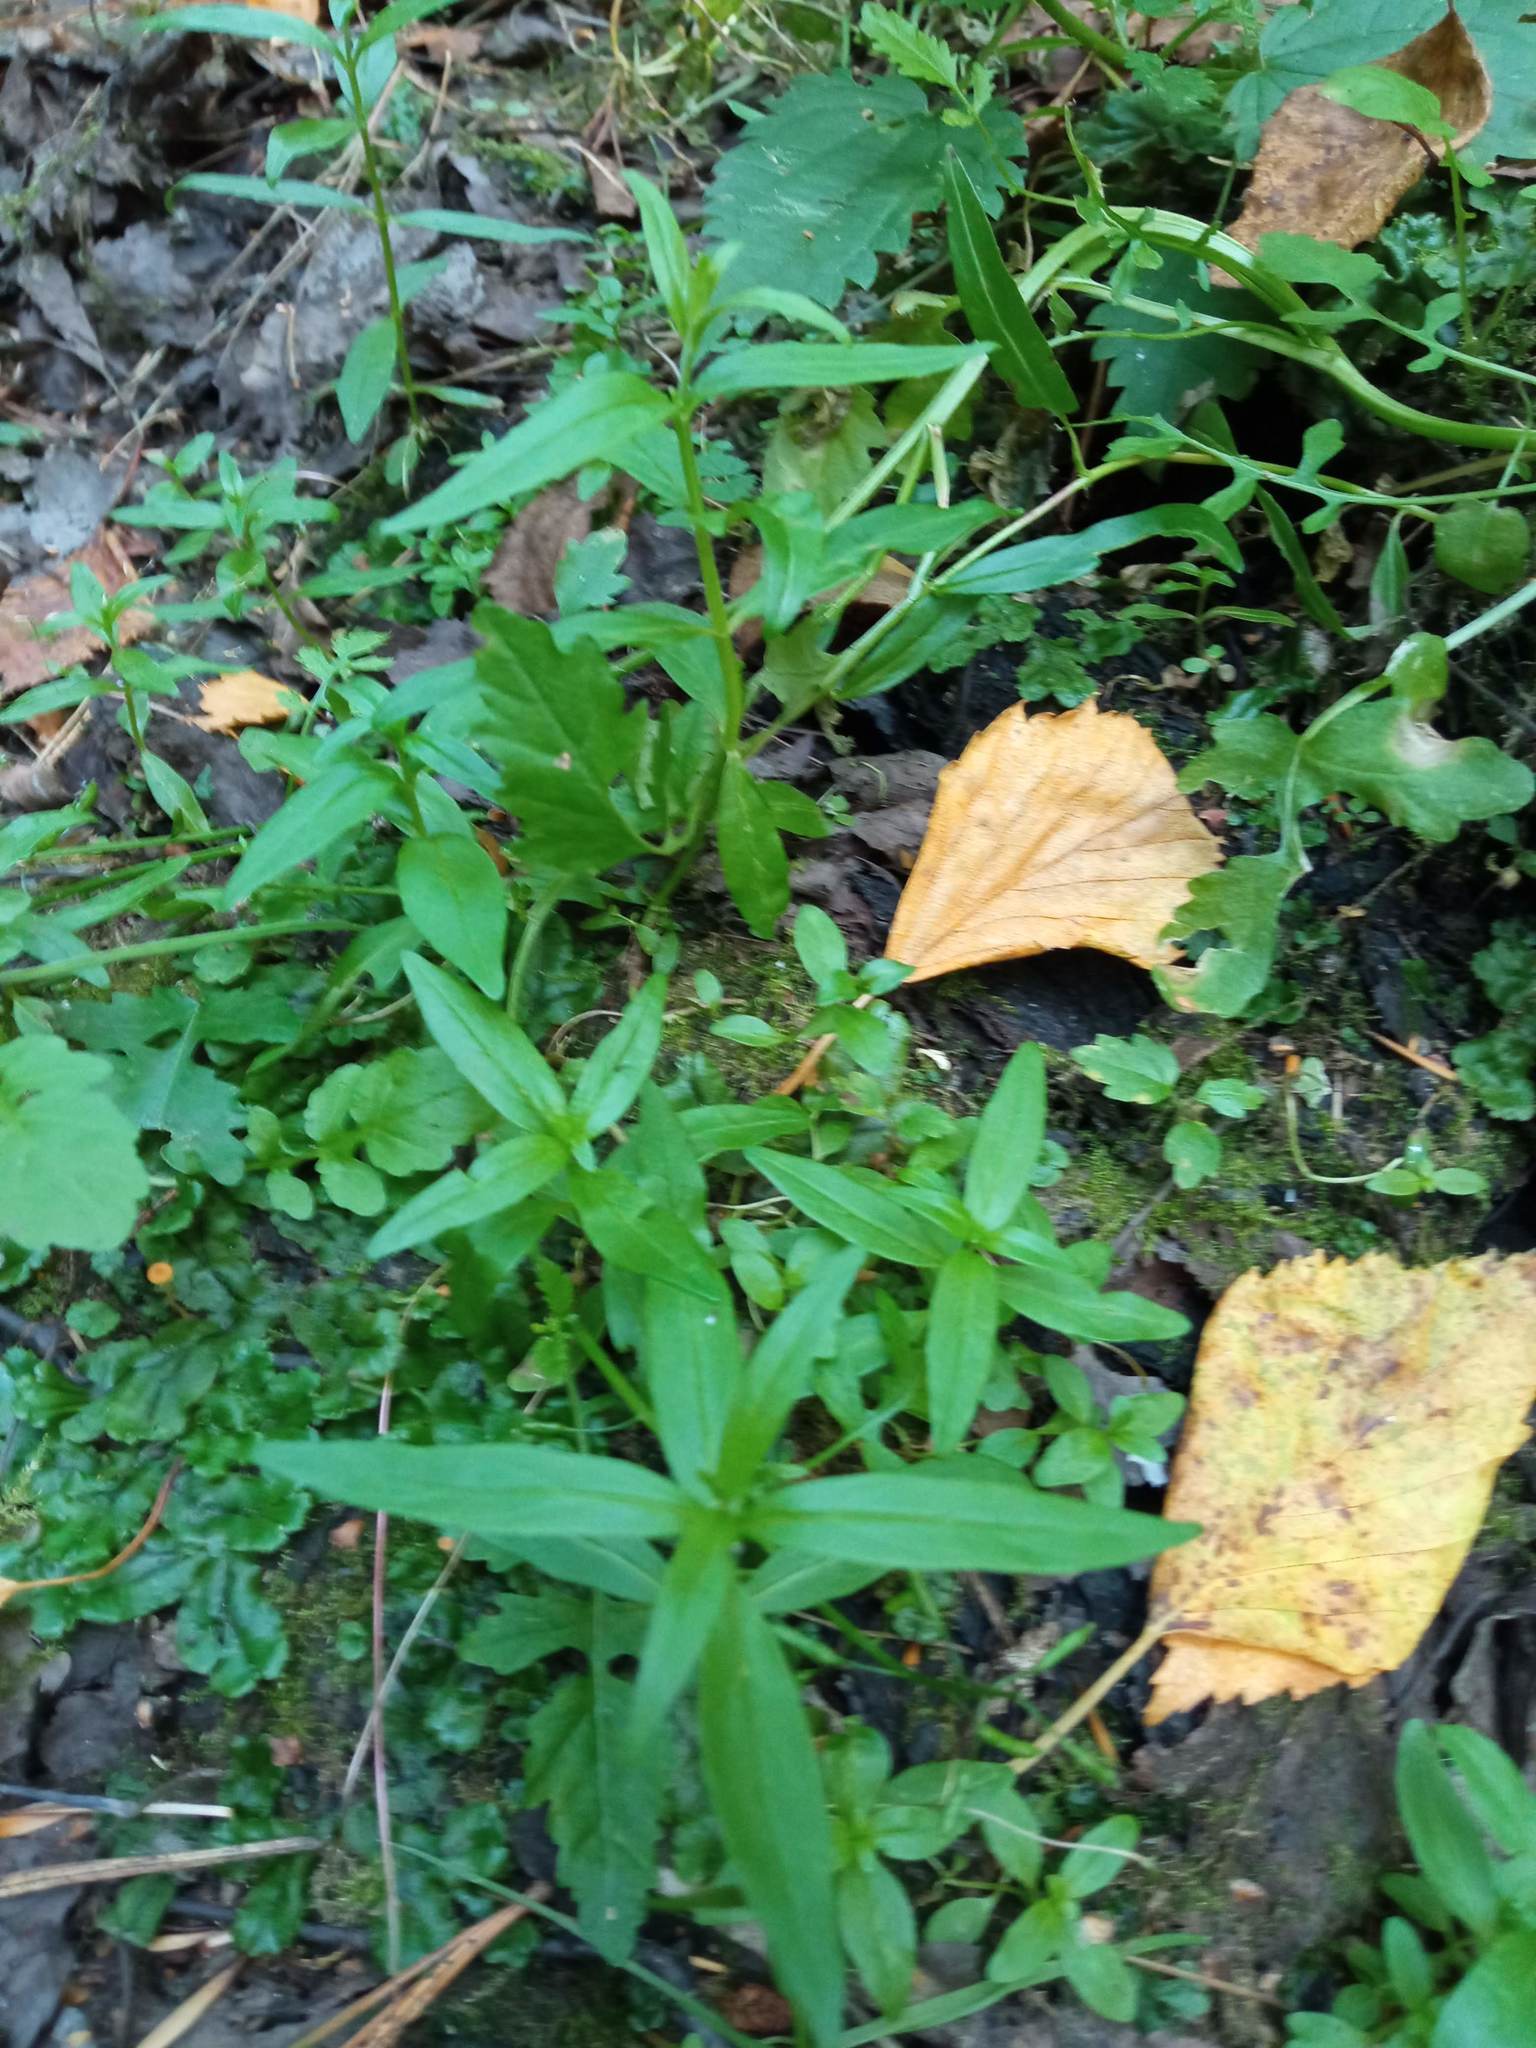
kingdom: Plantae
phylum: Tracheophyta
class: Magnoliopsida
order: Myrtales
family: Onagraceae
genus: Epilobium
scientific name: Epilobium palustre
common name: Marsh willowherb
